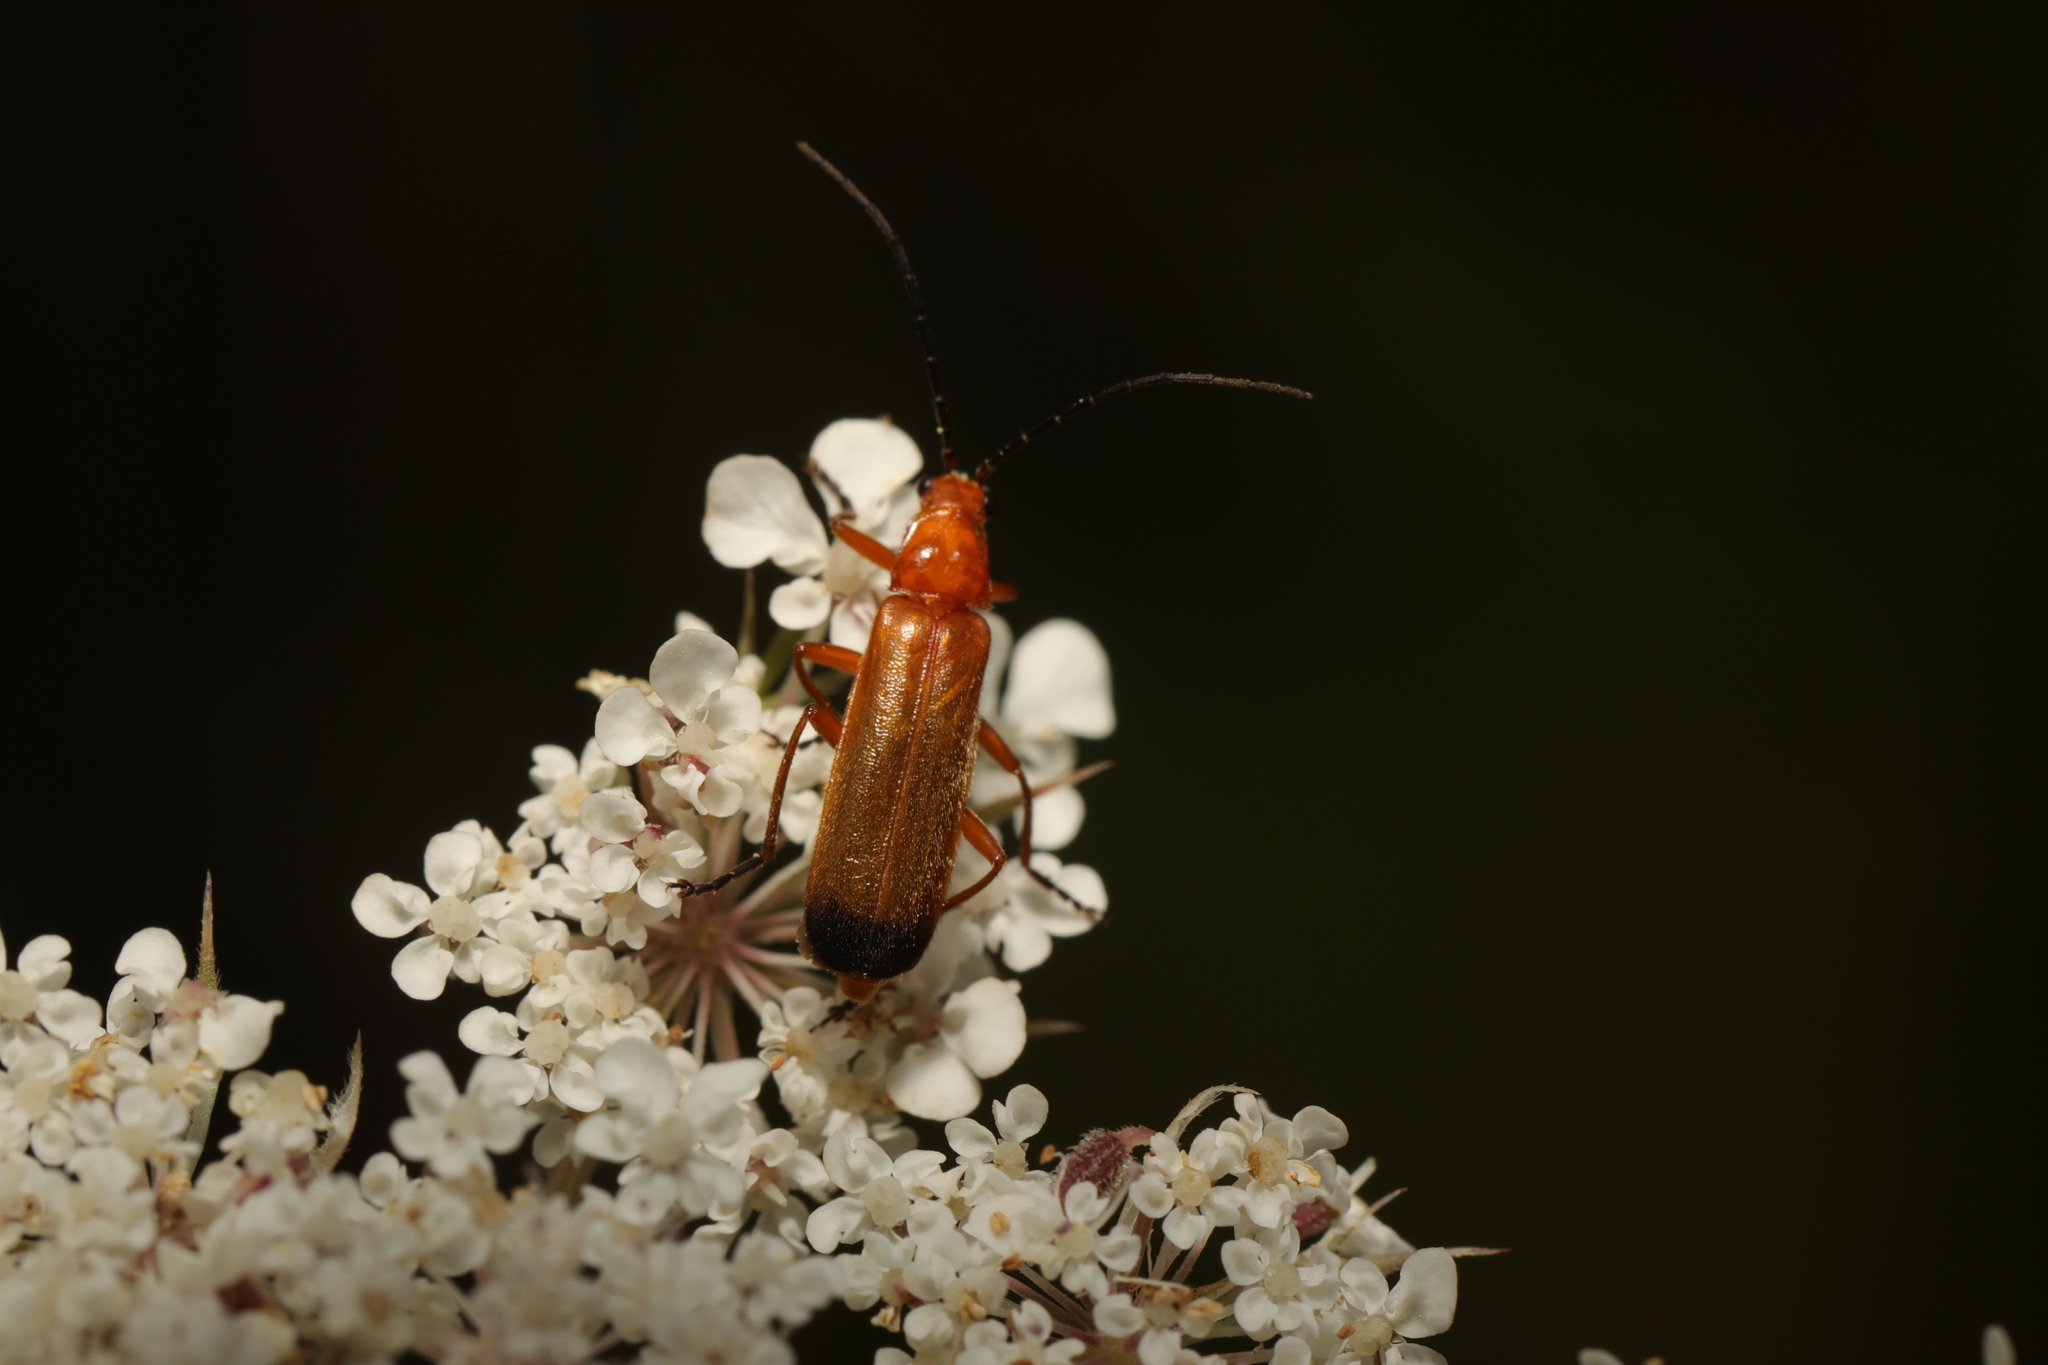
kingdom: Animalia
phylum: Arthropoda
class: Insecta
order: Coleoptera
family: Cantharidae
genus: Rhagonycha
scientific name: Rhagonycha fulva
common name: Common red soldier beetle
